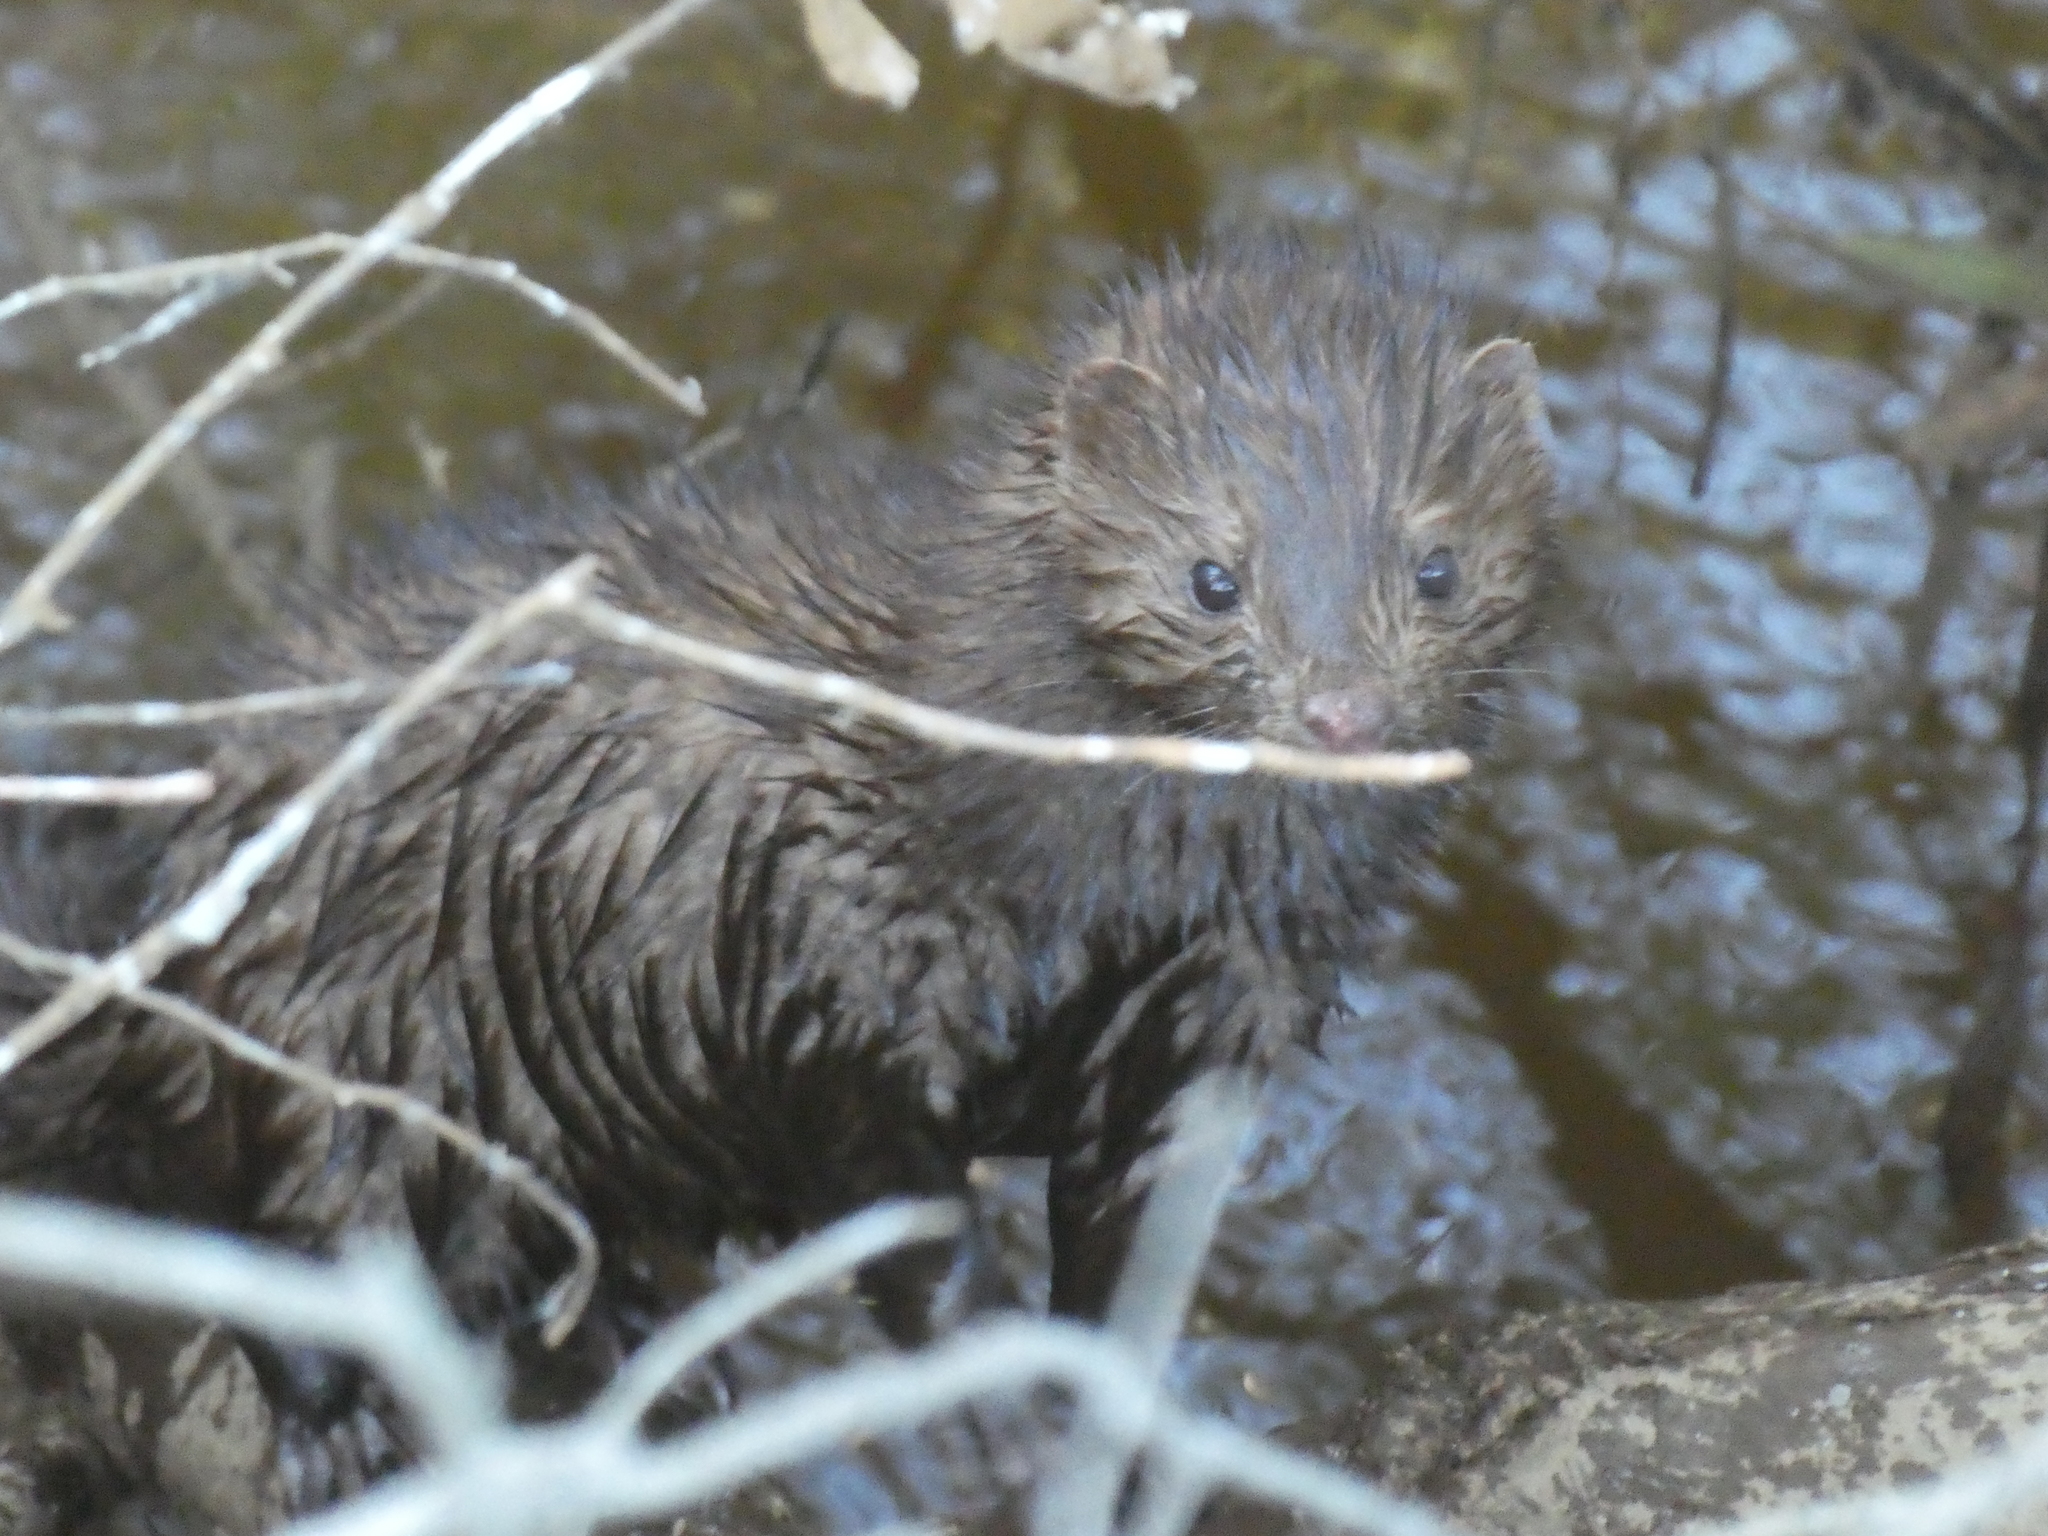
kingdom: Animalia
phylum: Chordata
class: Mammalia
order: Carnivora
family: Mustelidae
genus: Mustela
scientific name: Mustela
